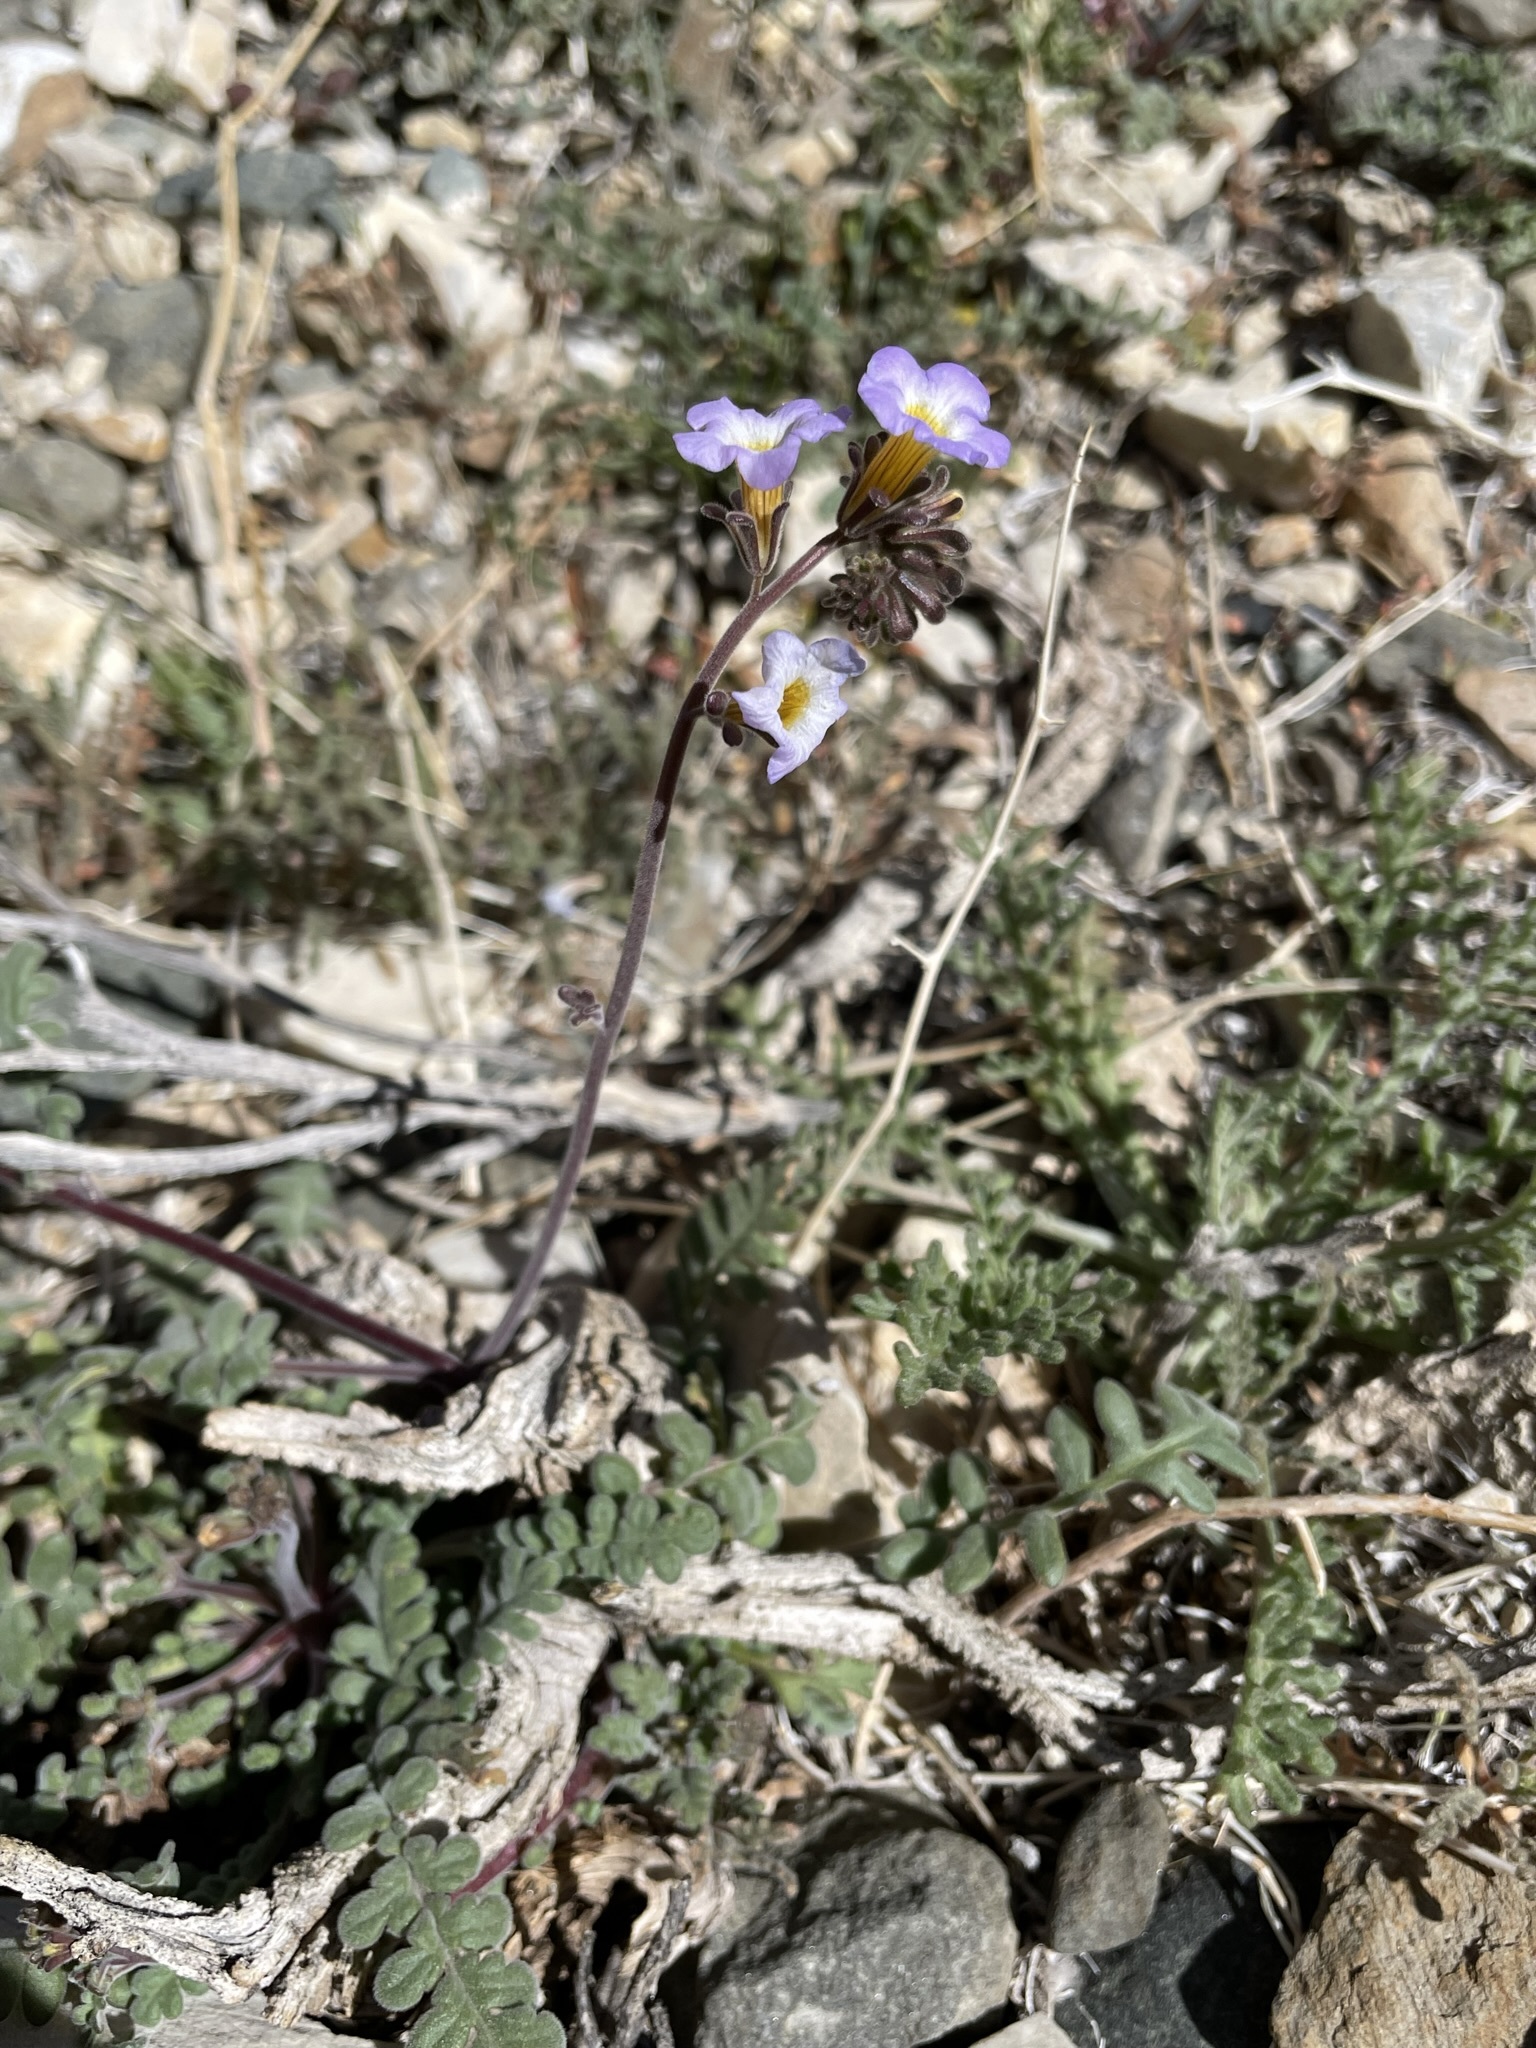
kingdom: Plantae
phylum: Tracheophyta
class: Magnoliopsida
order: Boraginales
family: Hydrophyllaceae
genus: Phacelia
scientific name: Phacelia fremontii
